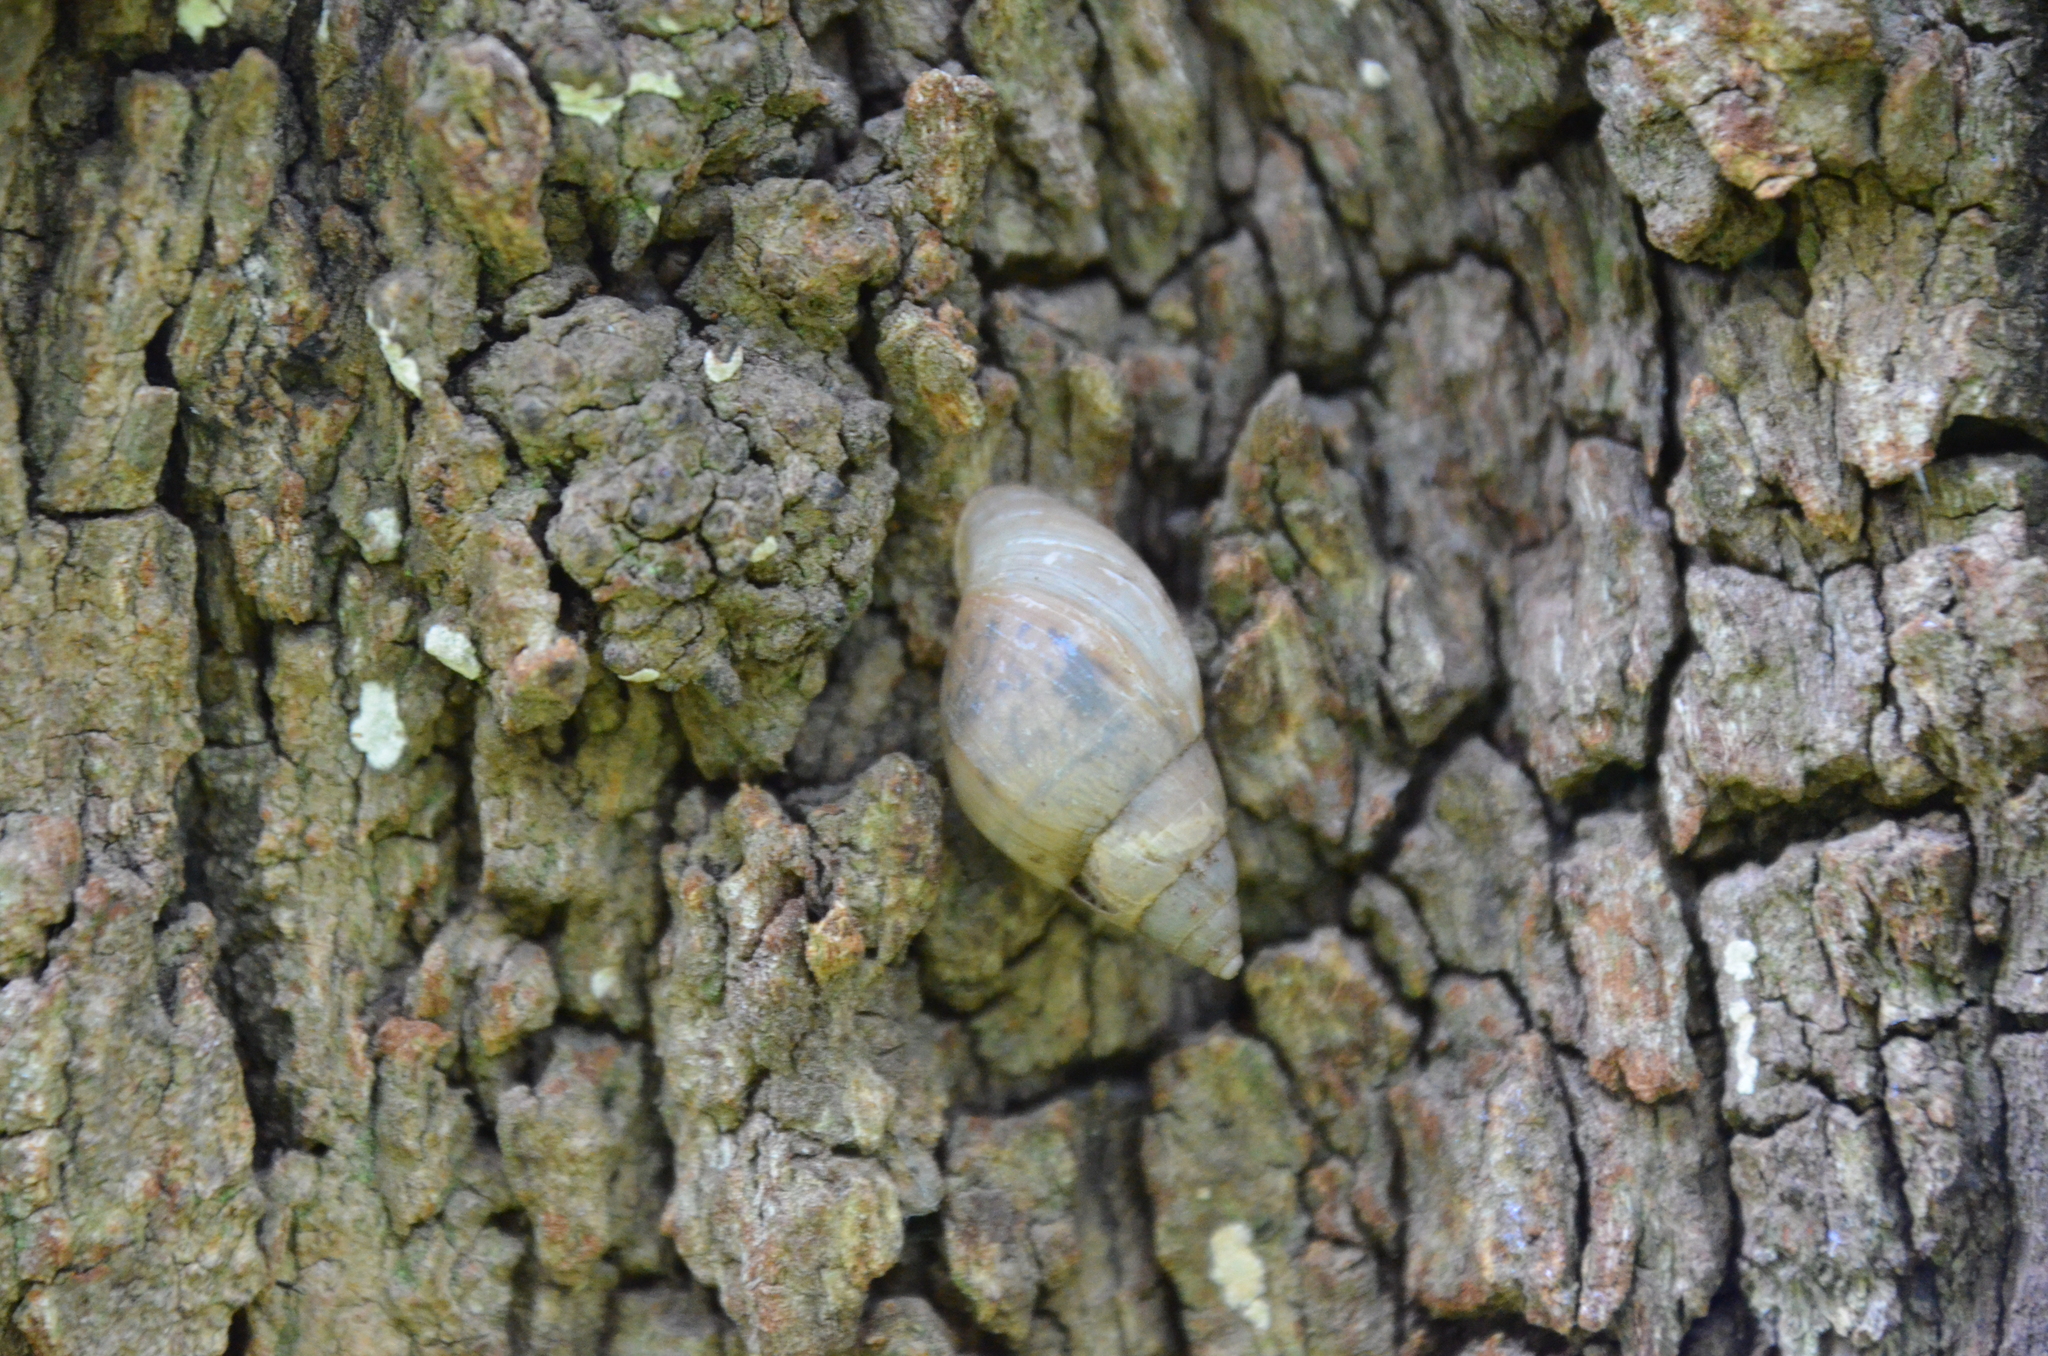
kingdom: Animalia
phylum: Mollusca
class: Gastropoda
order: Stylommatophora
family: Bulimulidae
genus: Bulimulus
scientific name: Bulimulus bonariensis
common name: Snail
